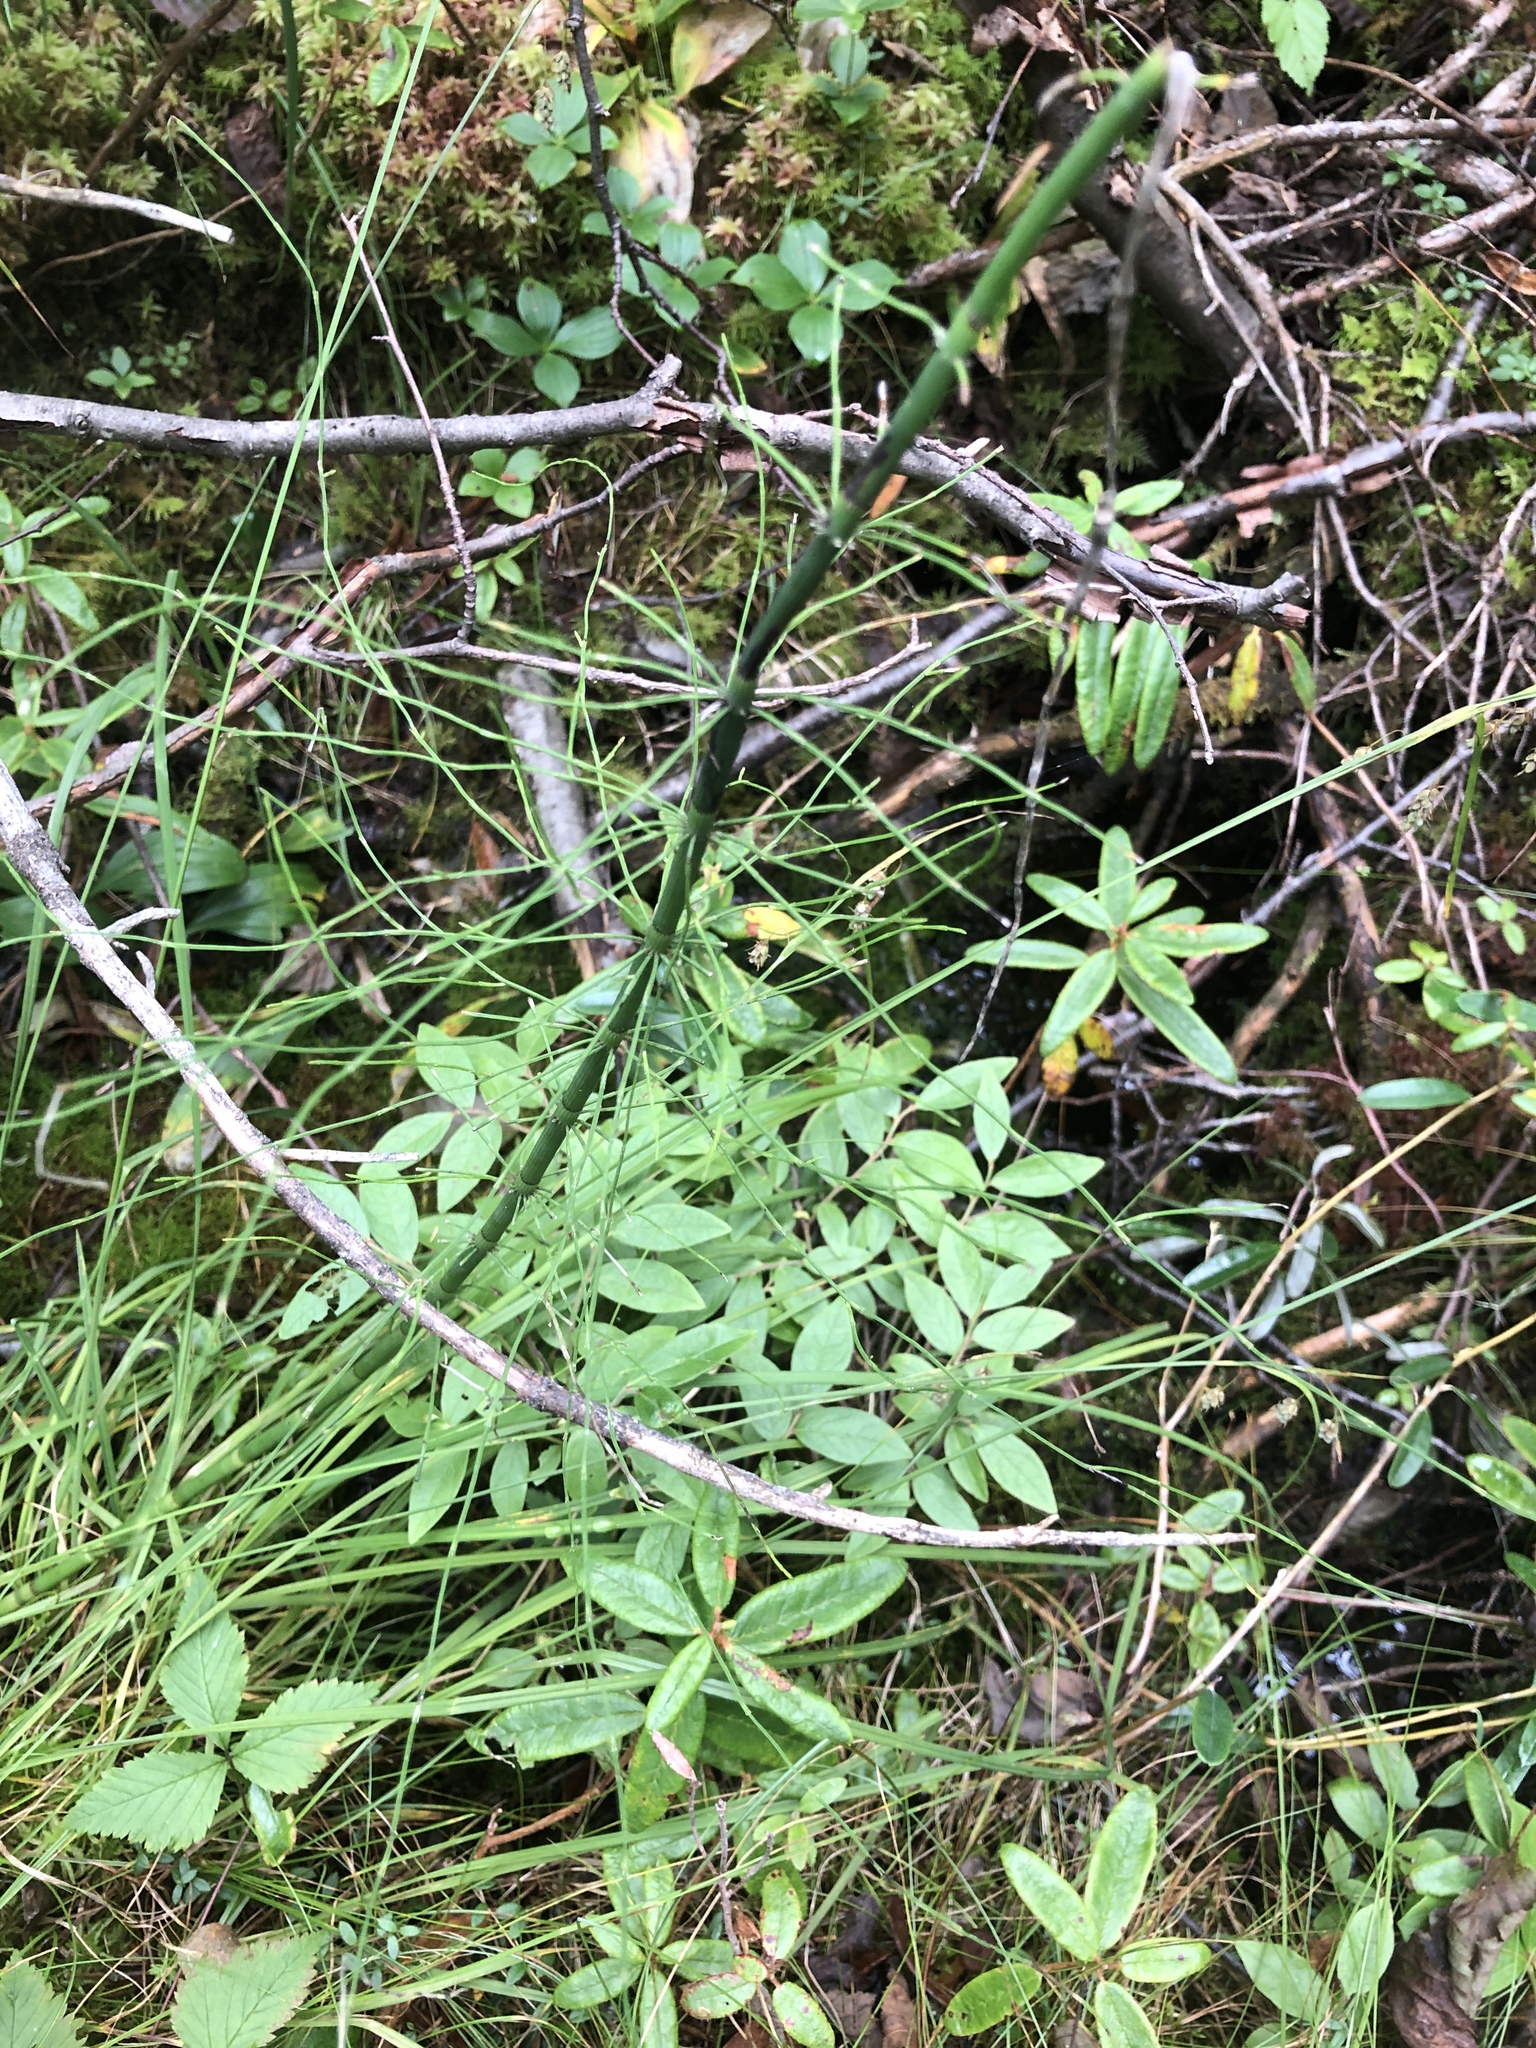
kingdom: Plantae
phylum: Tracheophyta
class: Polypodiopsida
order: Equisetales
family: Equisetaceae
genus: Equisetum
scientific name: Equisetum fluviatile
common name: Water horsetail
